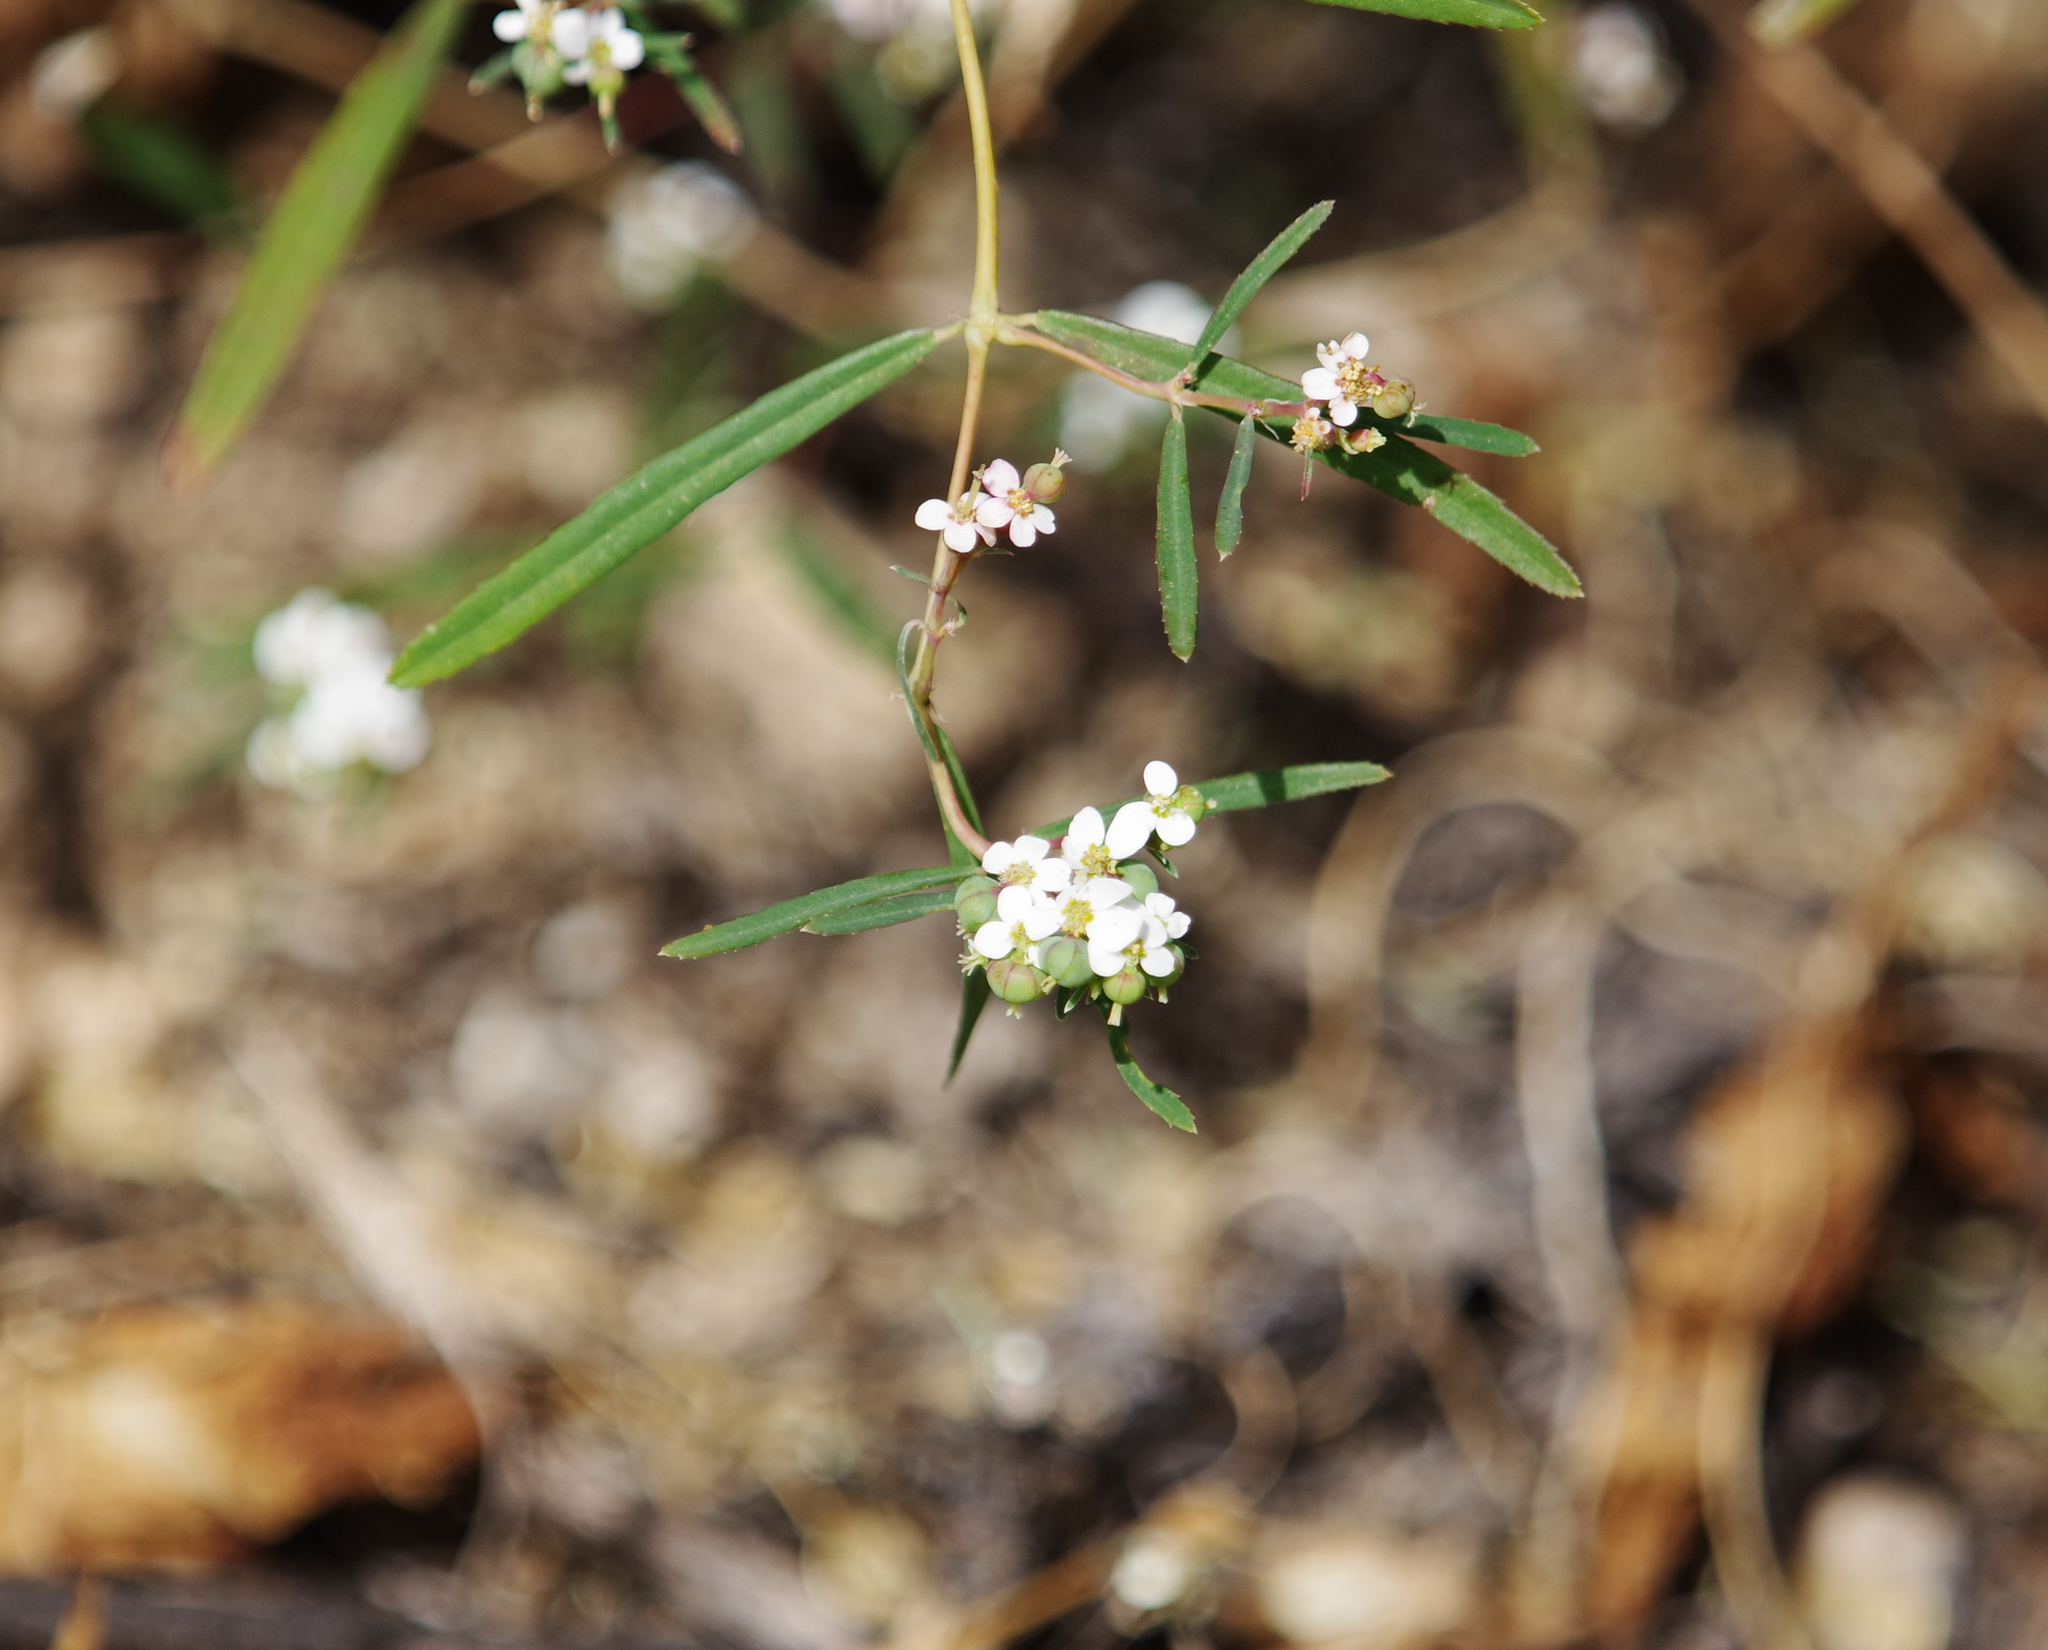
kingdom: Plantae
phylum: Tracheophyta
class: Magnoliopsida
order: Malpighiales
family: Euphorbiaceae
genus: Euphorbia
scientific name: Euphorbia florida
